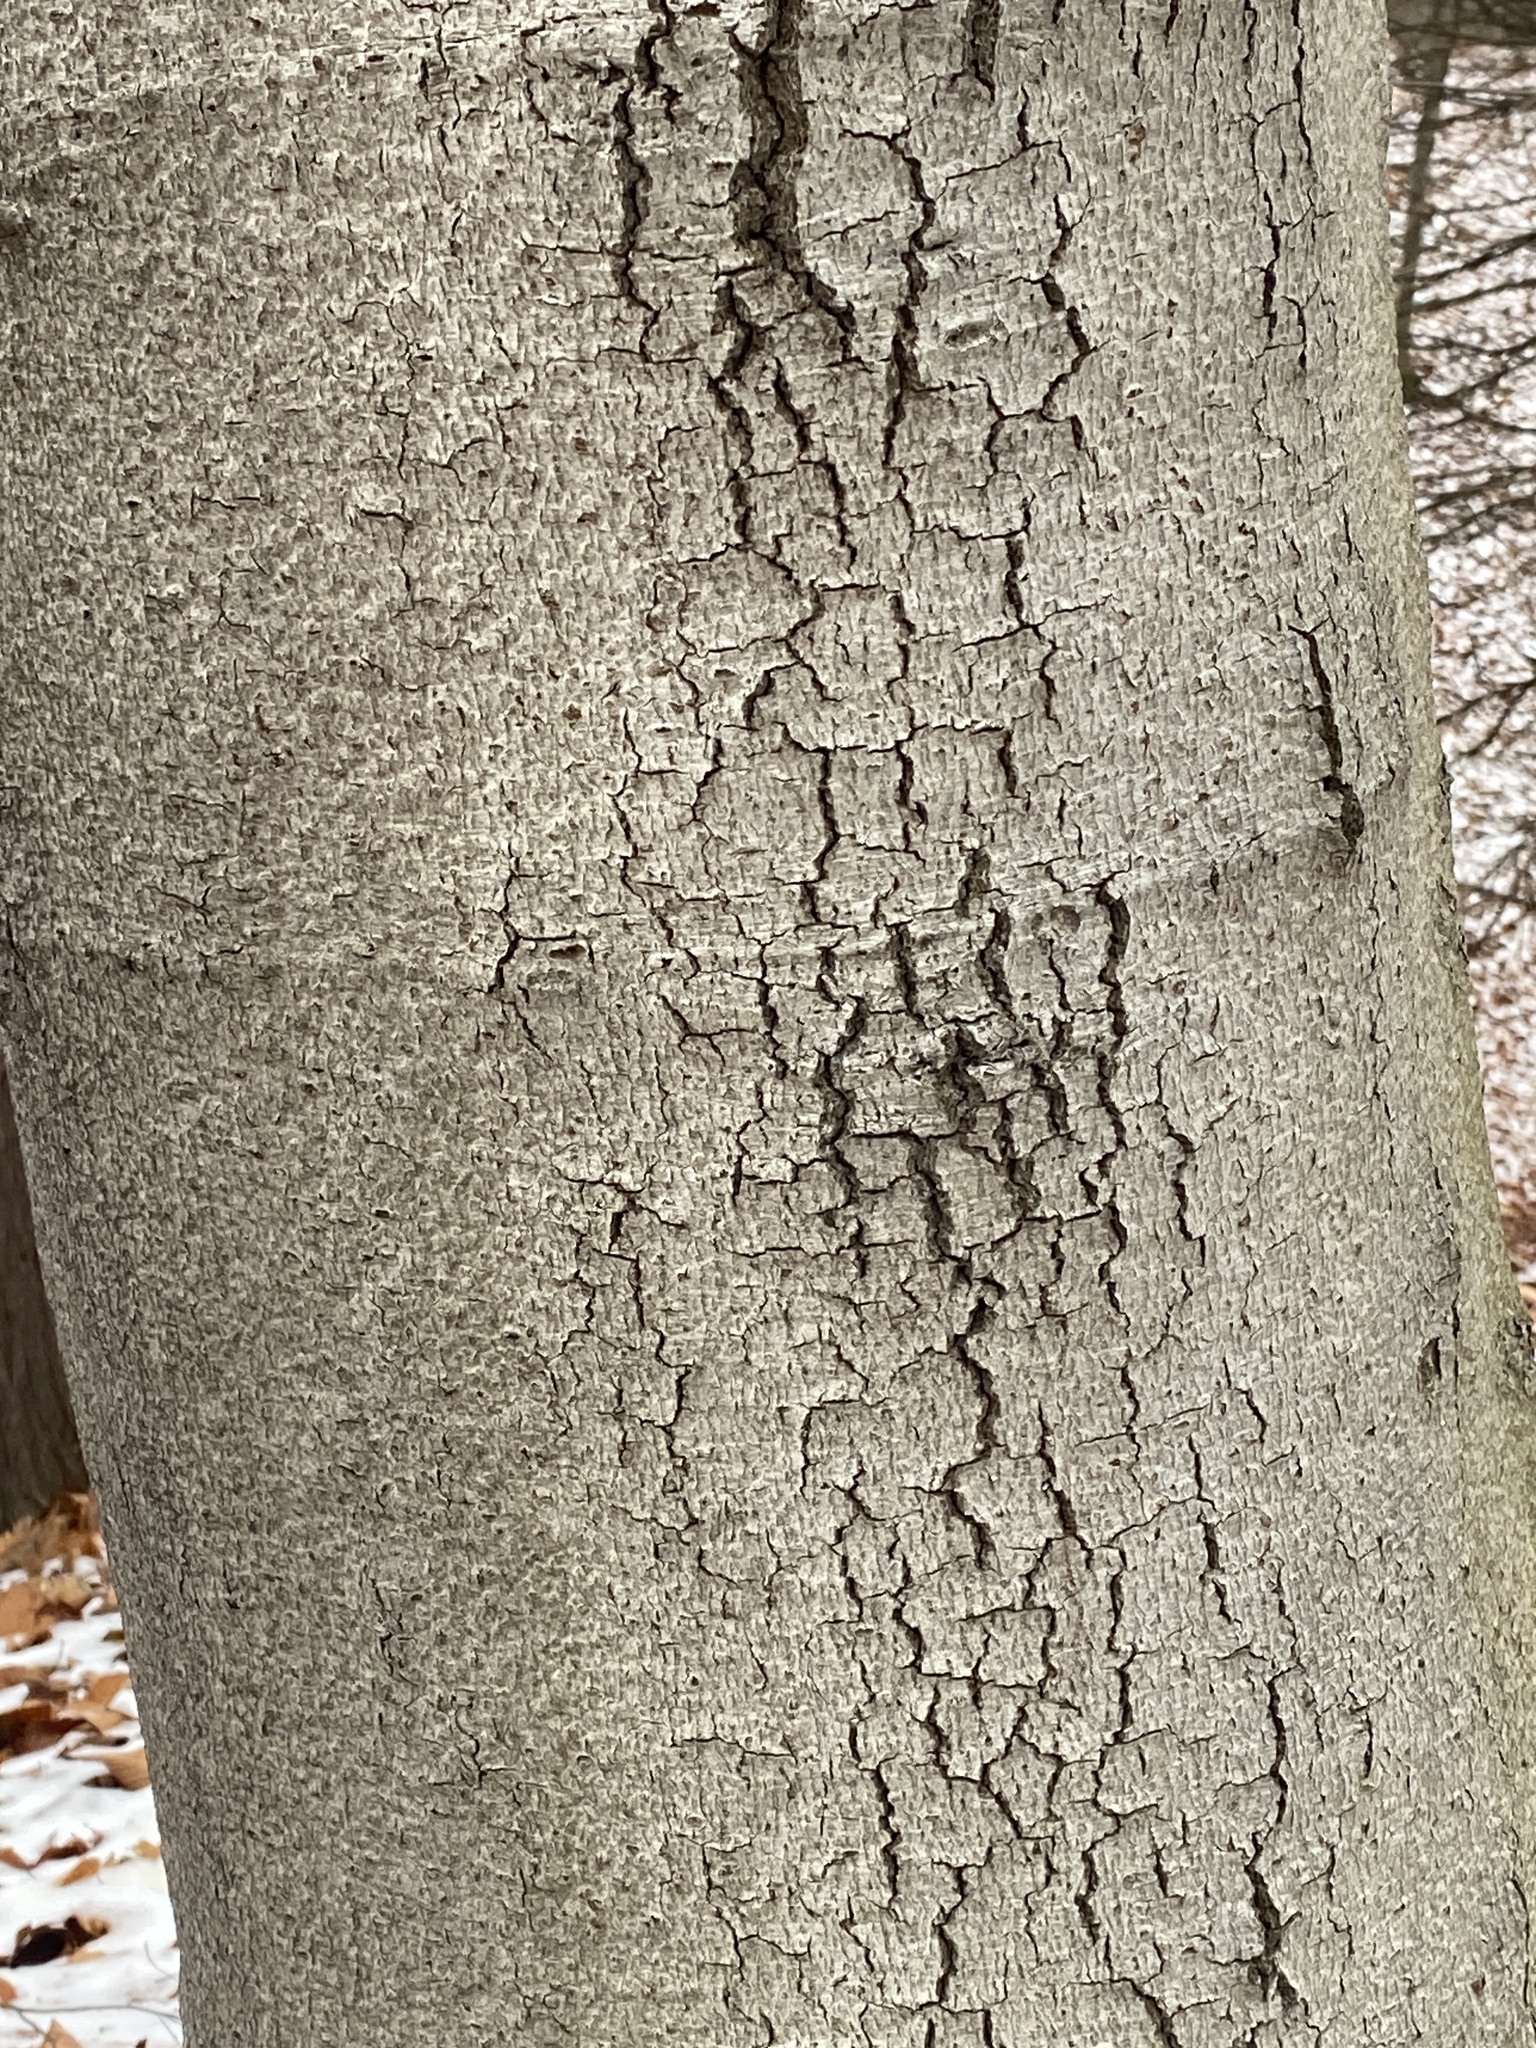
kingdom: Fungi
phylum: Ascomycota
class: Sordariomycetes
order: Hypocreales
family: Nectriaceae
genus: Neonectria
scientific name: Neonectria faginata
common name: Beech bark canker
